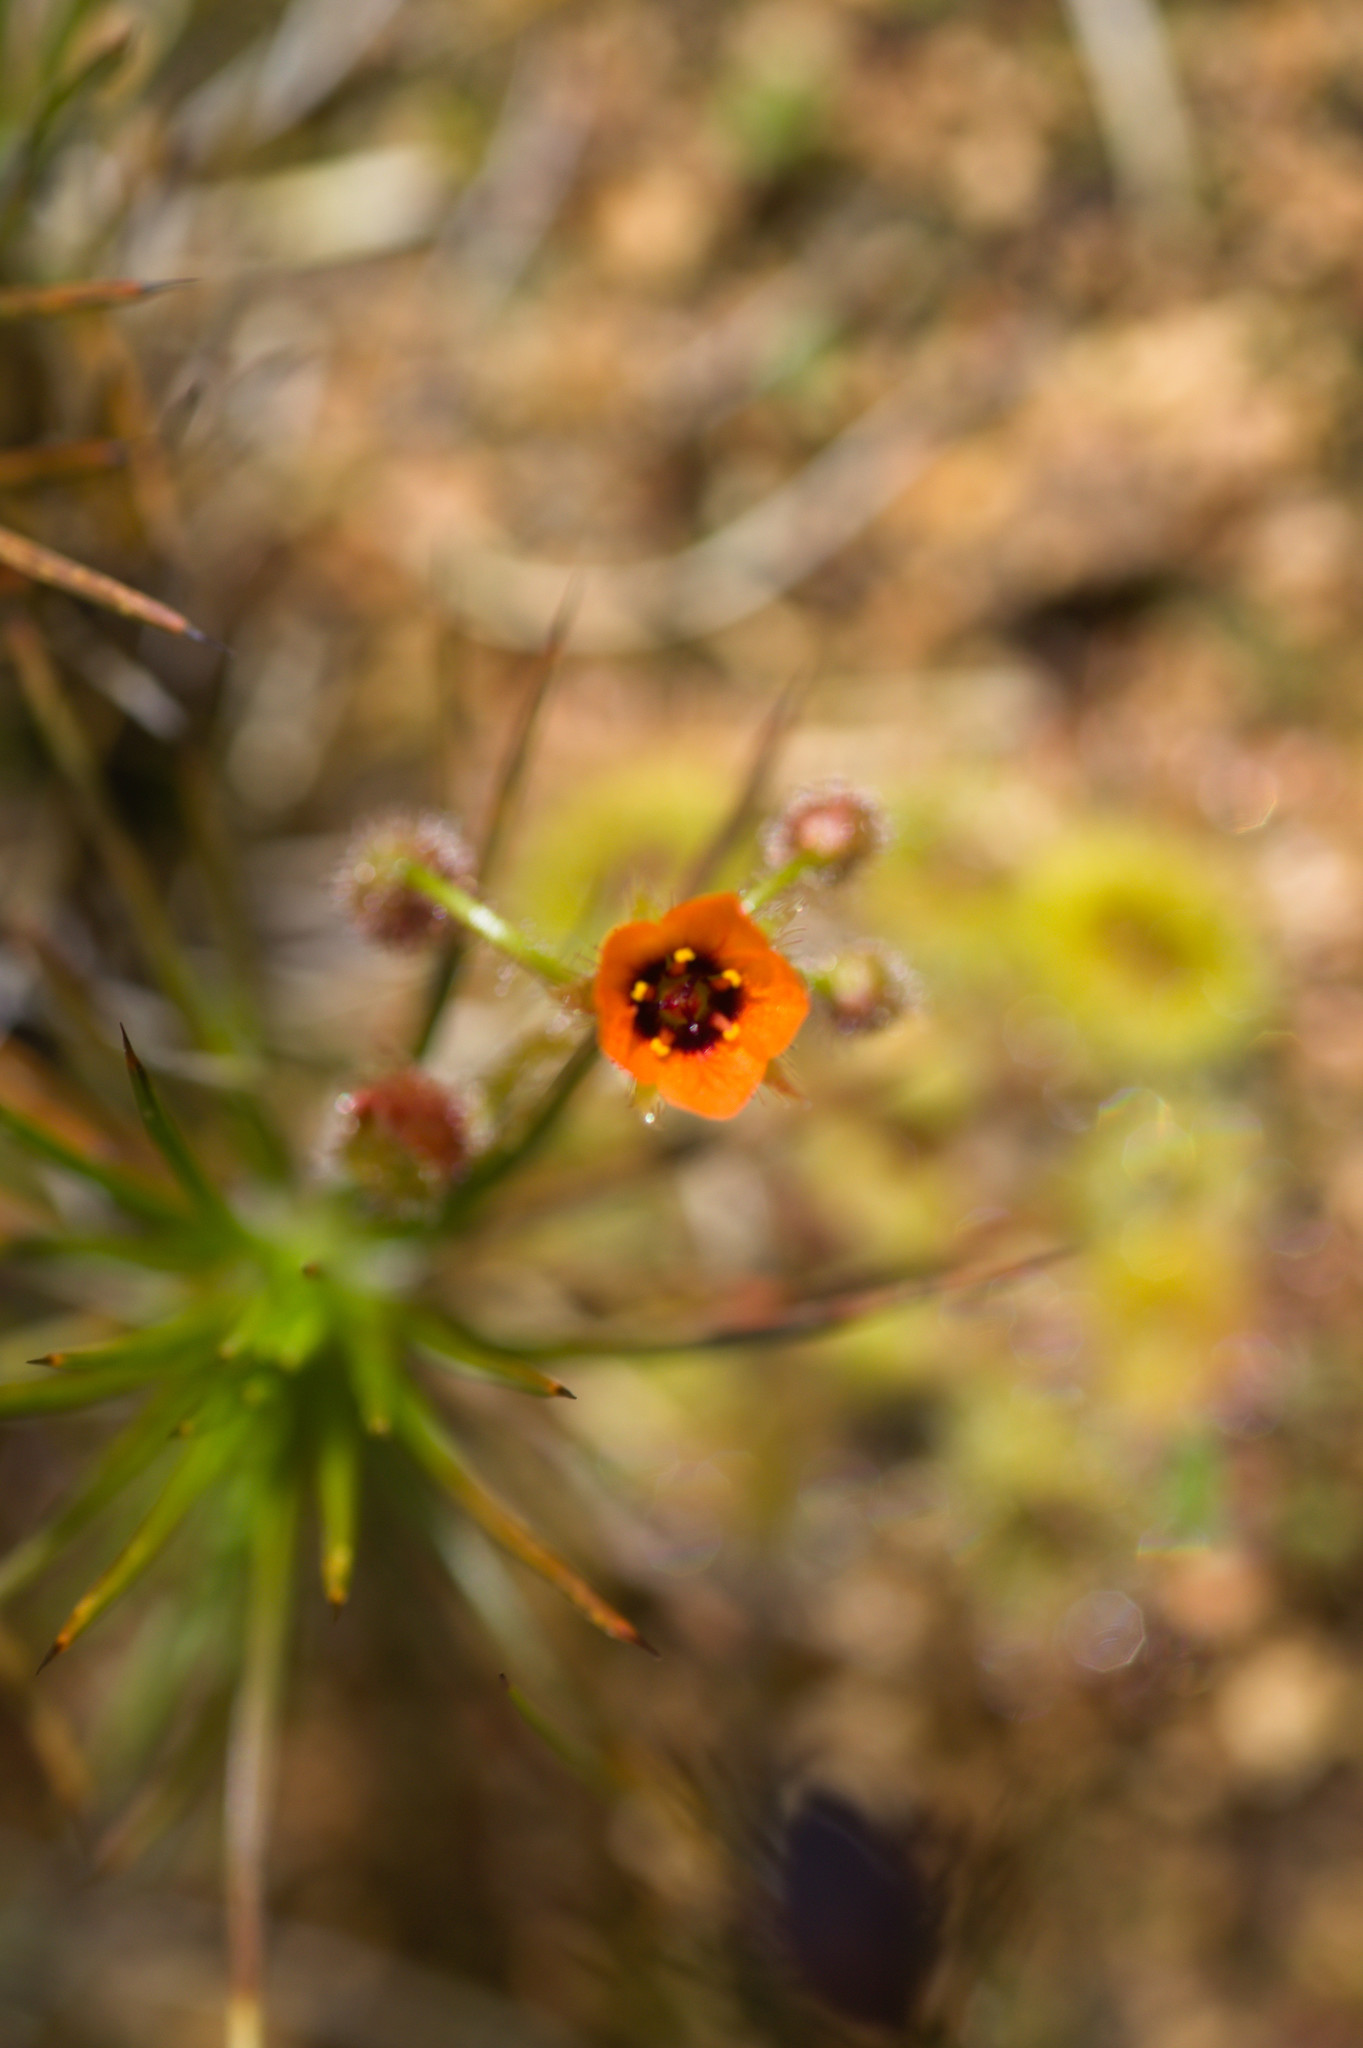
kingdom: Plantae
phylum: Tracheophyta
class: Magnoliopsida
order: Caryophyllales
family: Droseraceae
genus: Drosera
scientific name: Drosera glanduligera
